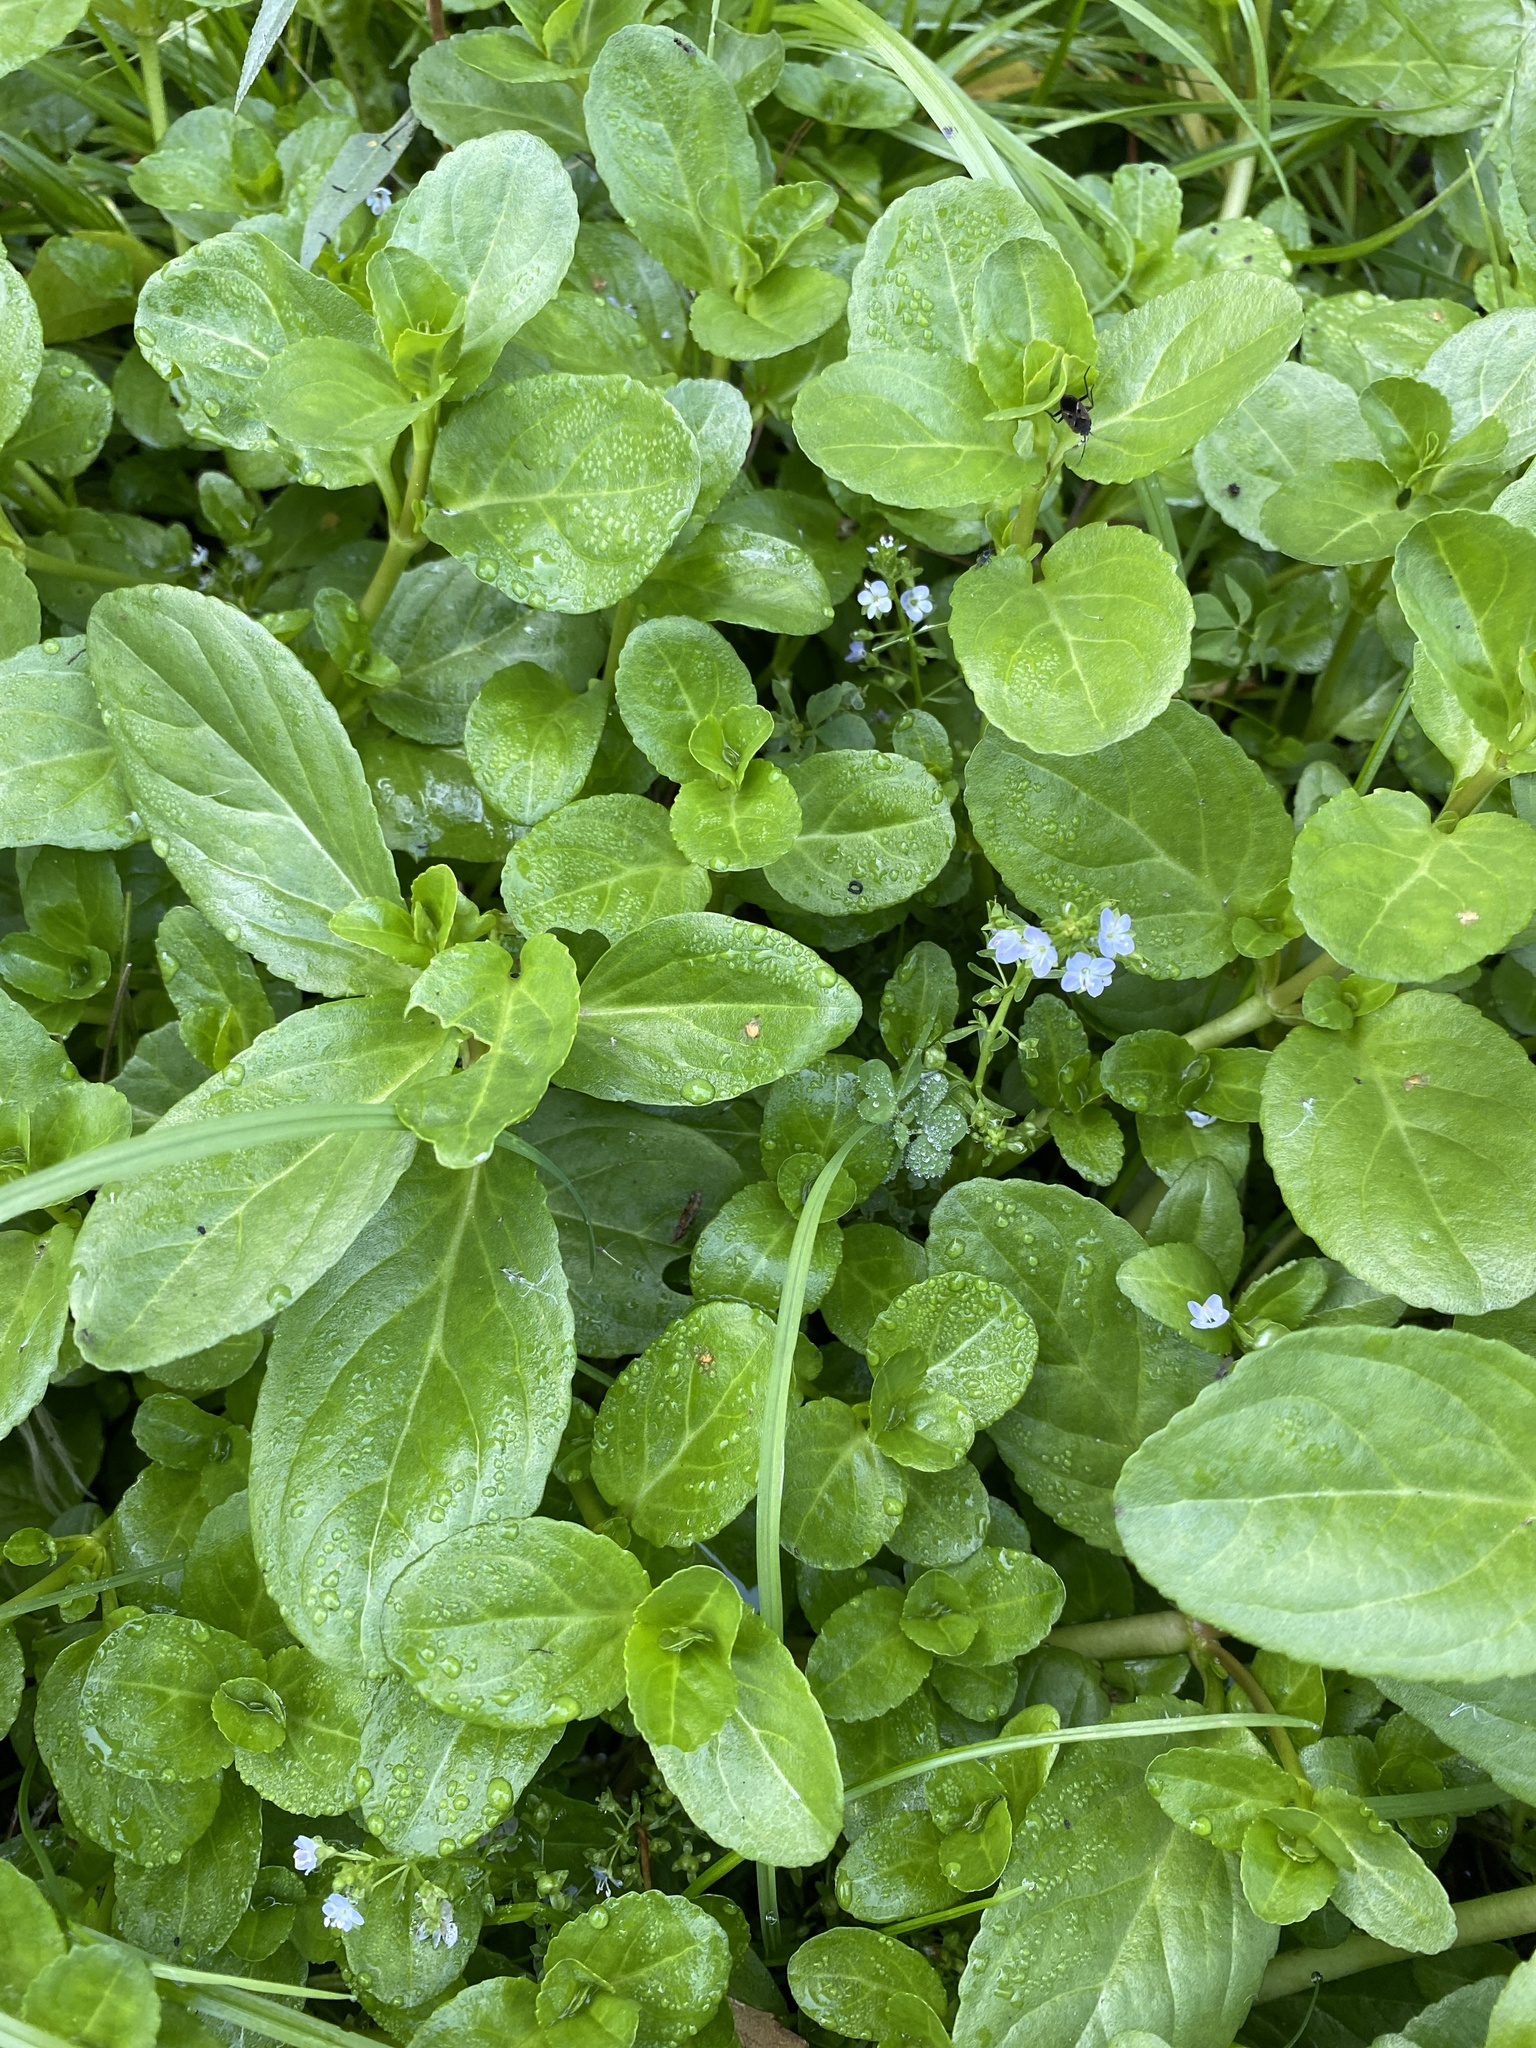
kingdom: Plantae
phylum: Tracheophyta
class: Magnoliopsida
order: Lamiales
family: Plantaginaceae
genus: Veronica
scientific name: Veronica beccabunga
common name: Brooklime
